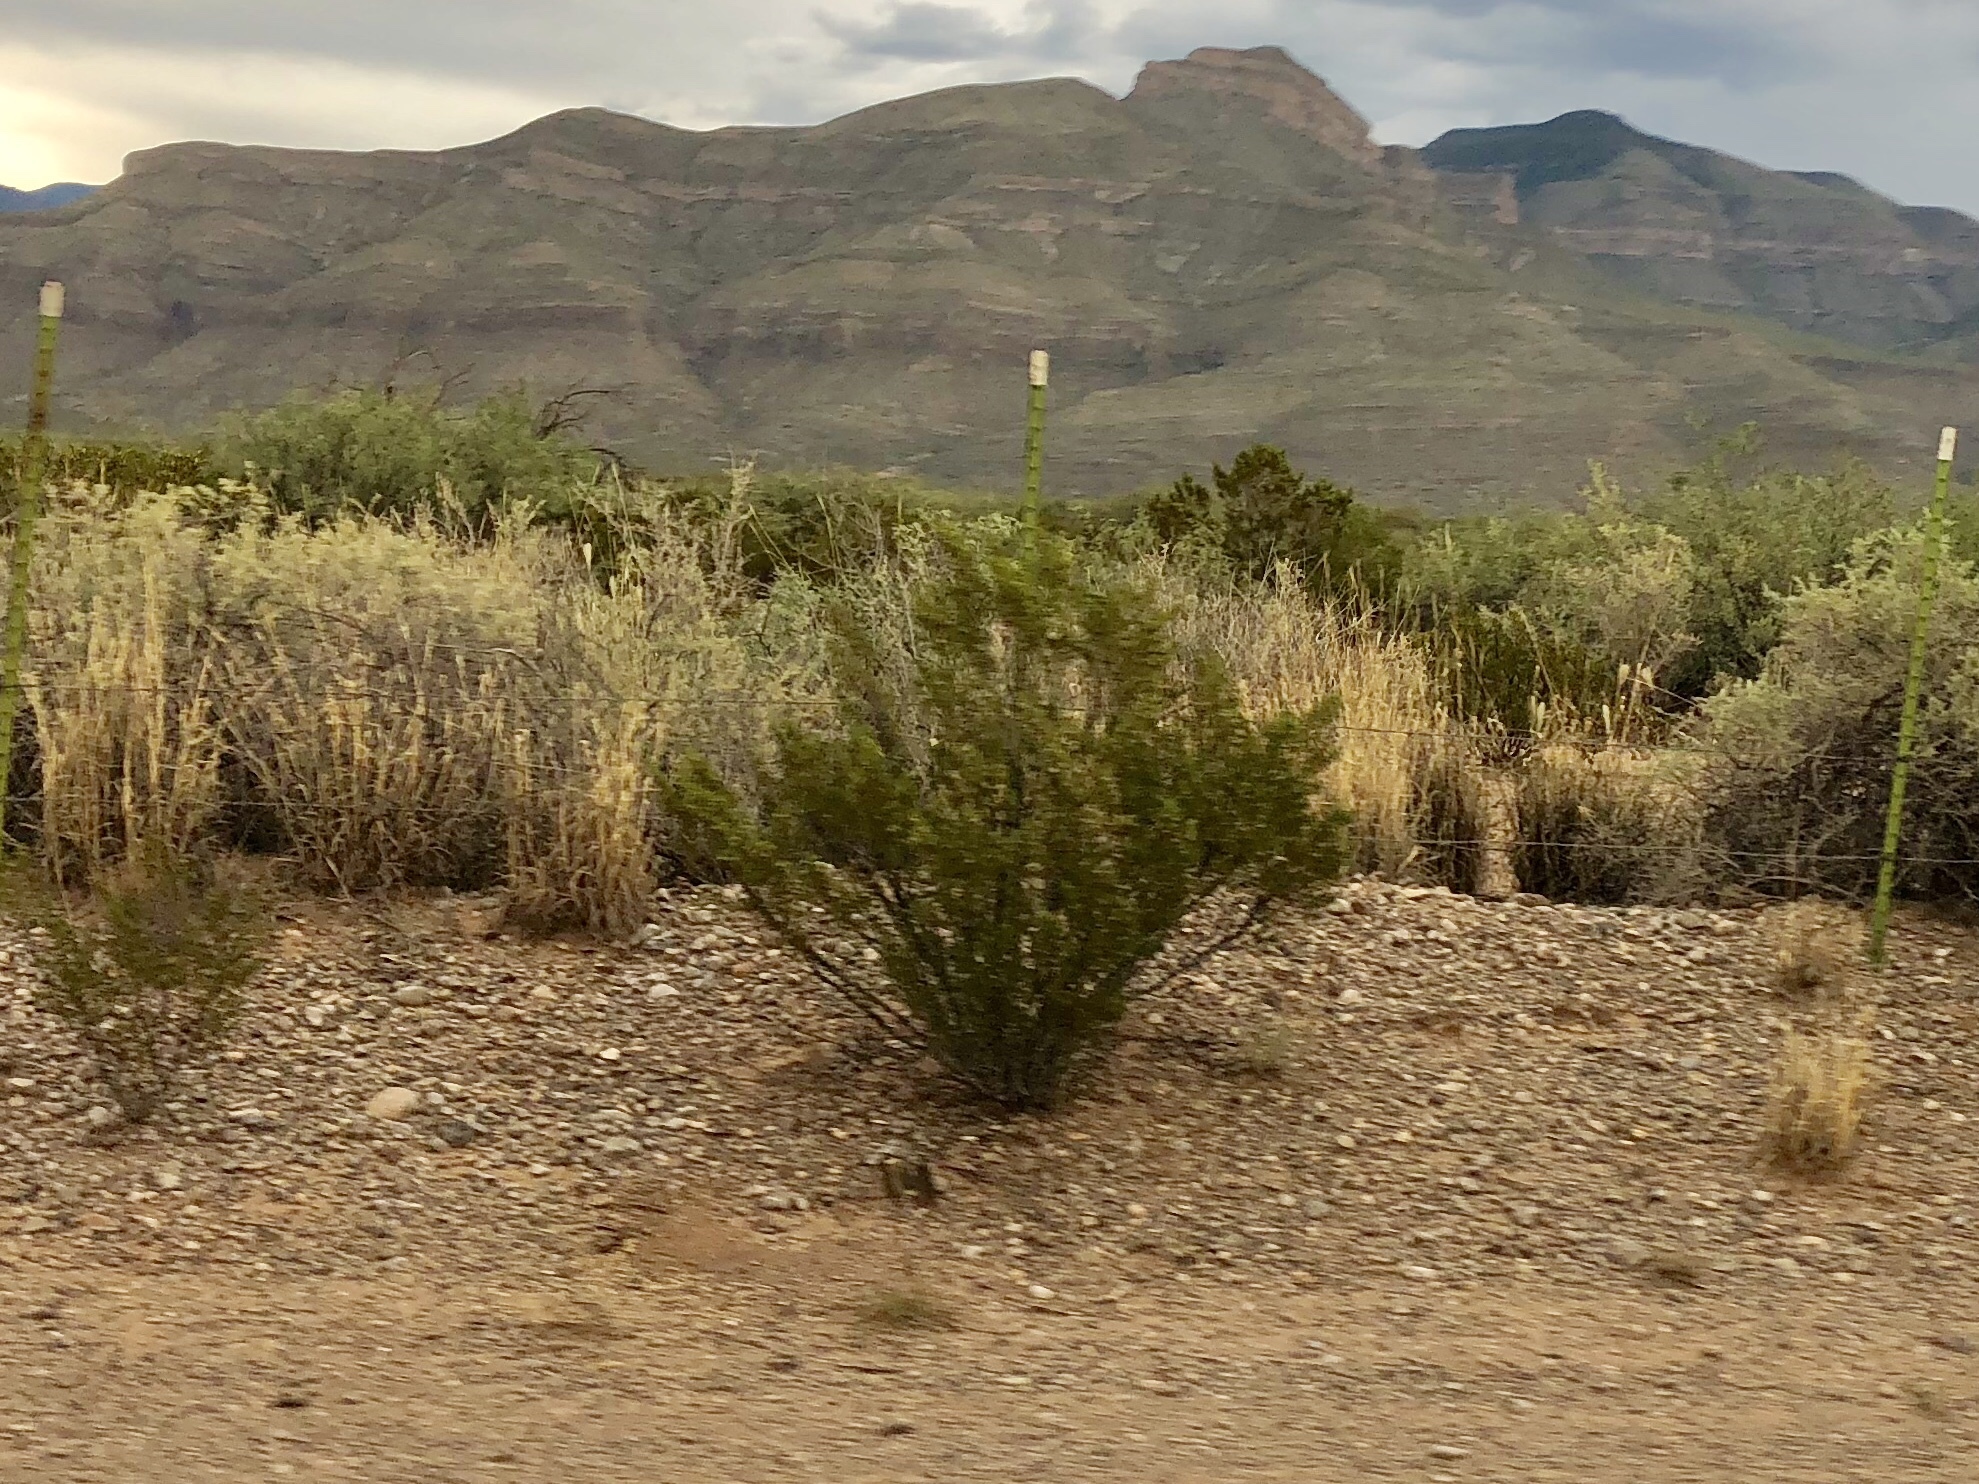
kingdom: Plantae
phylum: Tracheophyta
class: Magnoliopsida
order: Zygophyllales
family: Zygophyllaceae
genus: Larrea
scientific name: Larrea tridentata
